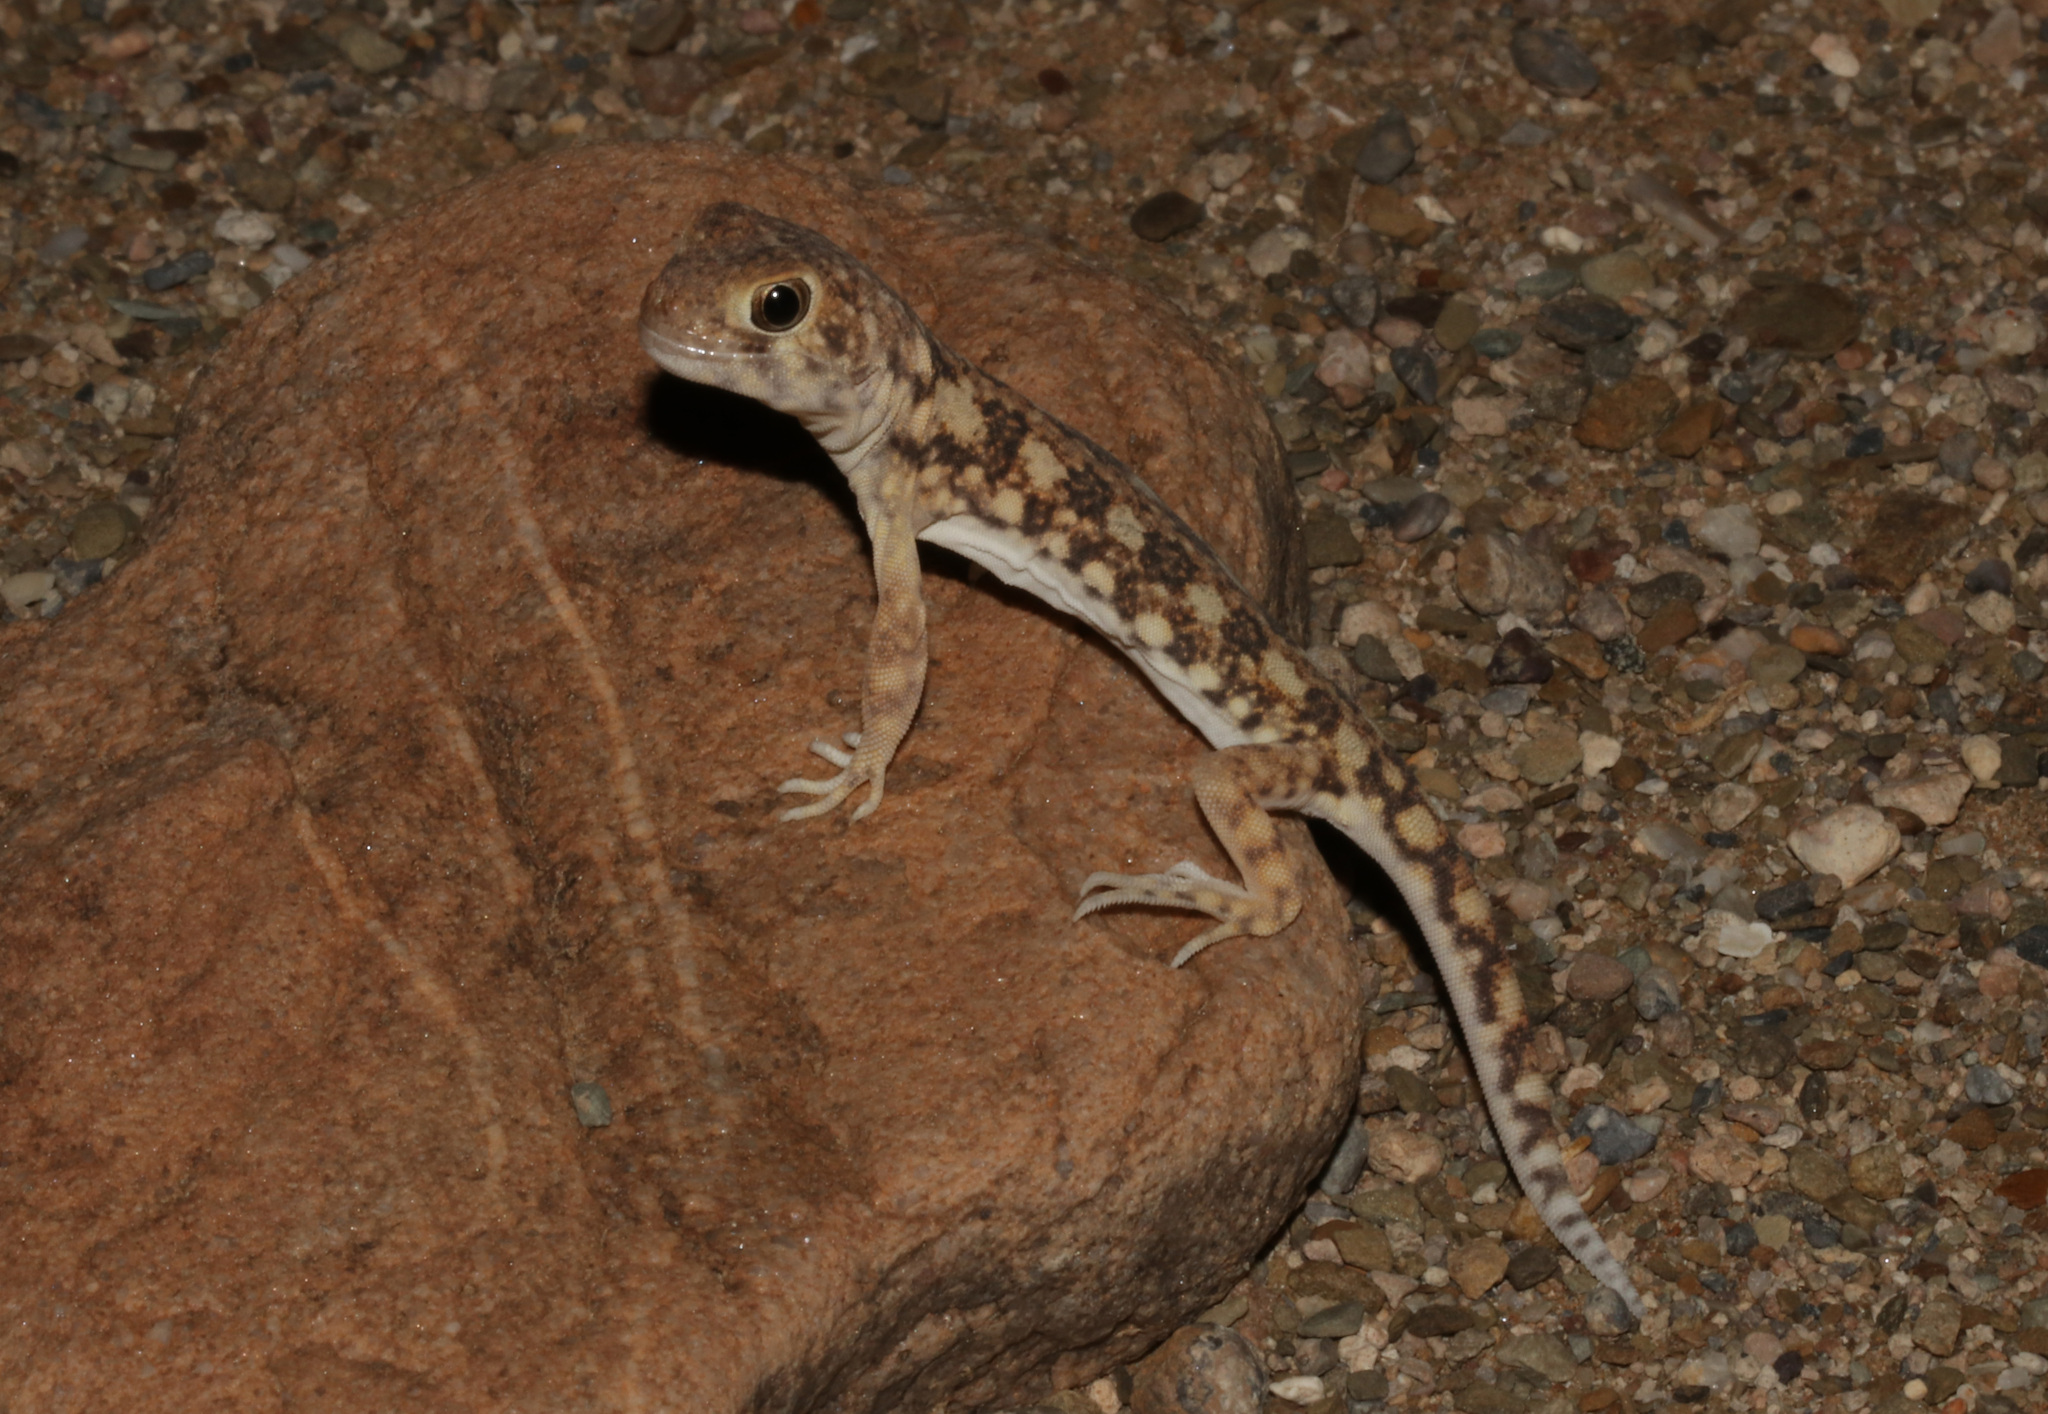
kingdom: Animalia
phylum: Chordata
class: Squamata
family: Gekkonidae
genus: Ptenopus
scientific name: Ptenopus garrulus
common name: Whistling gecko
